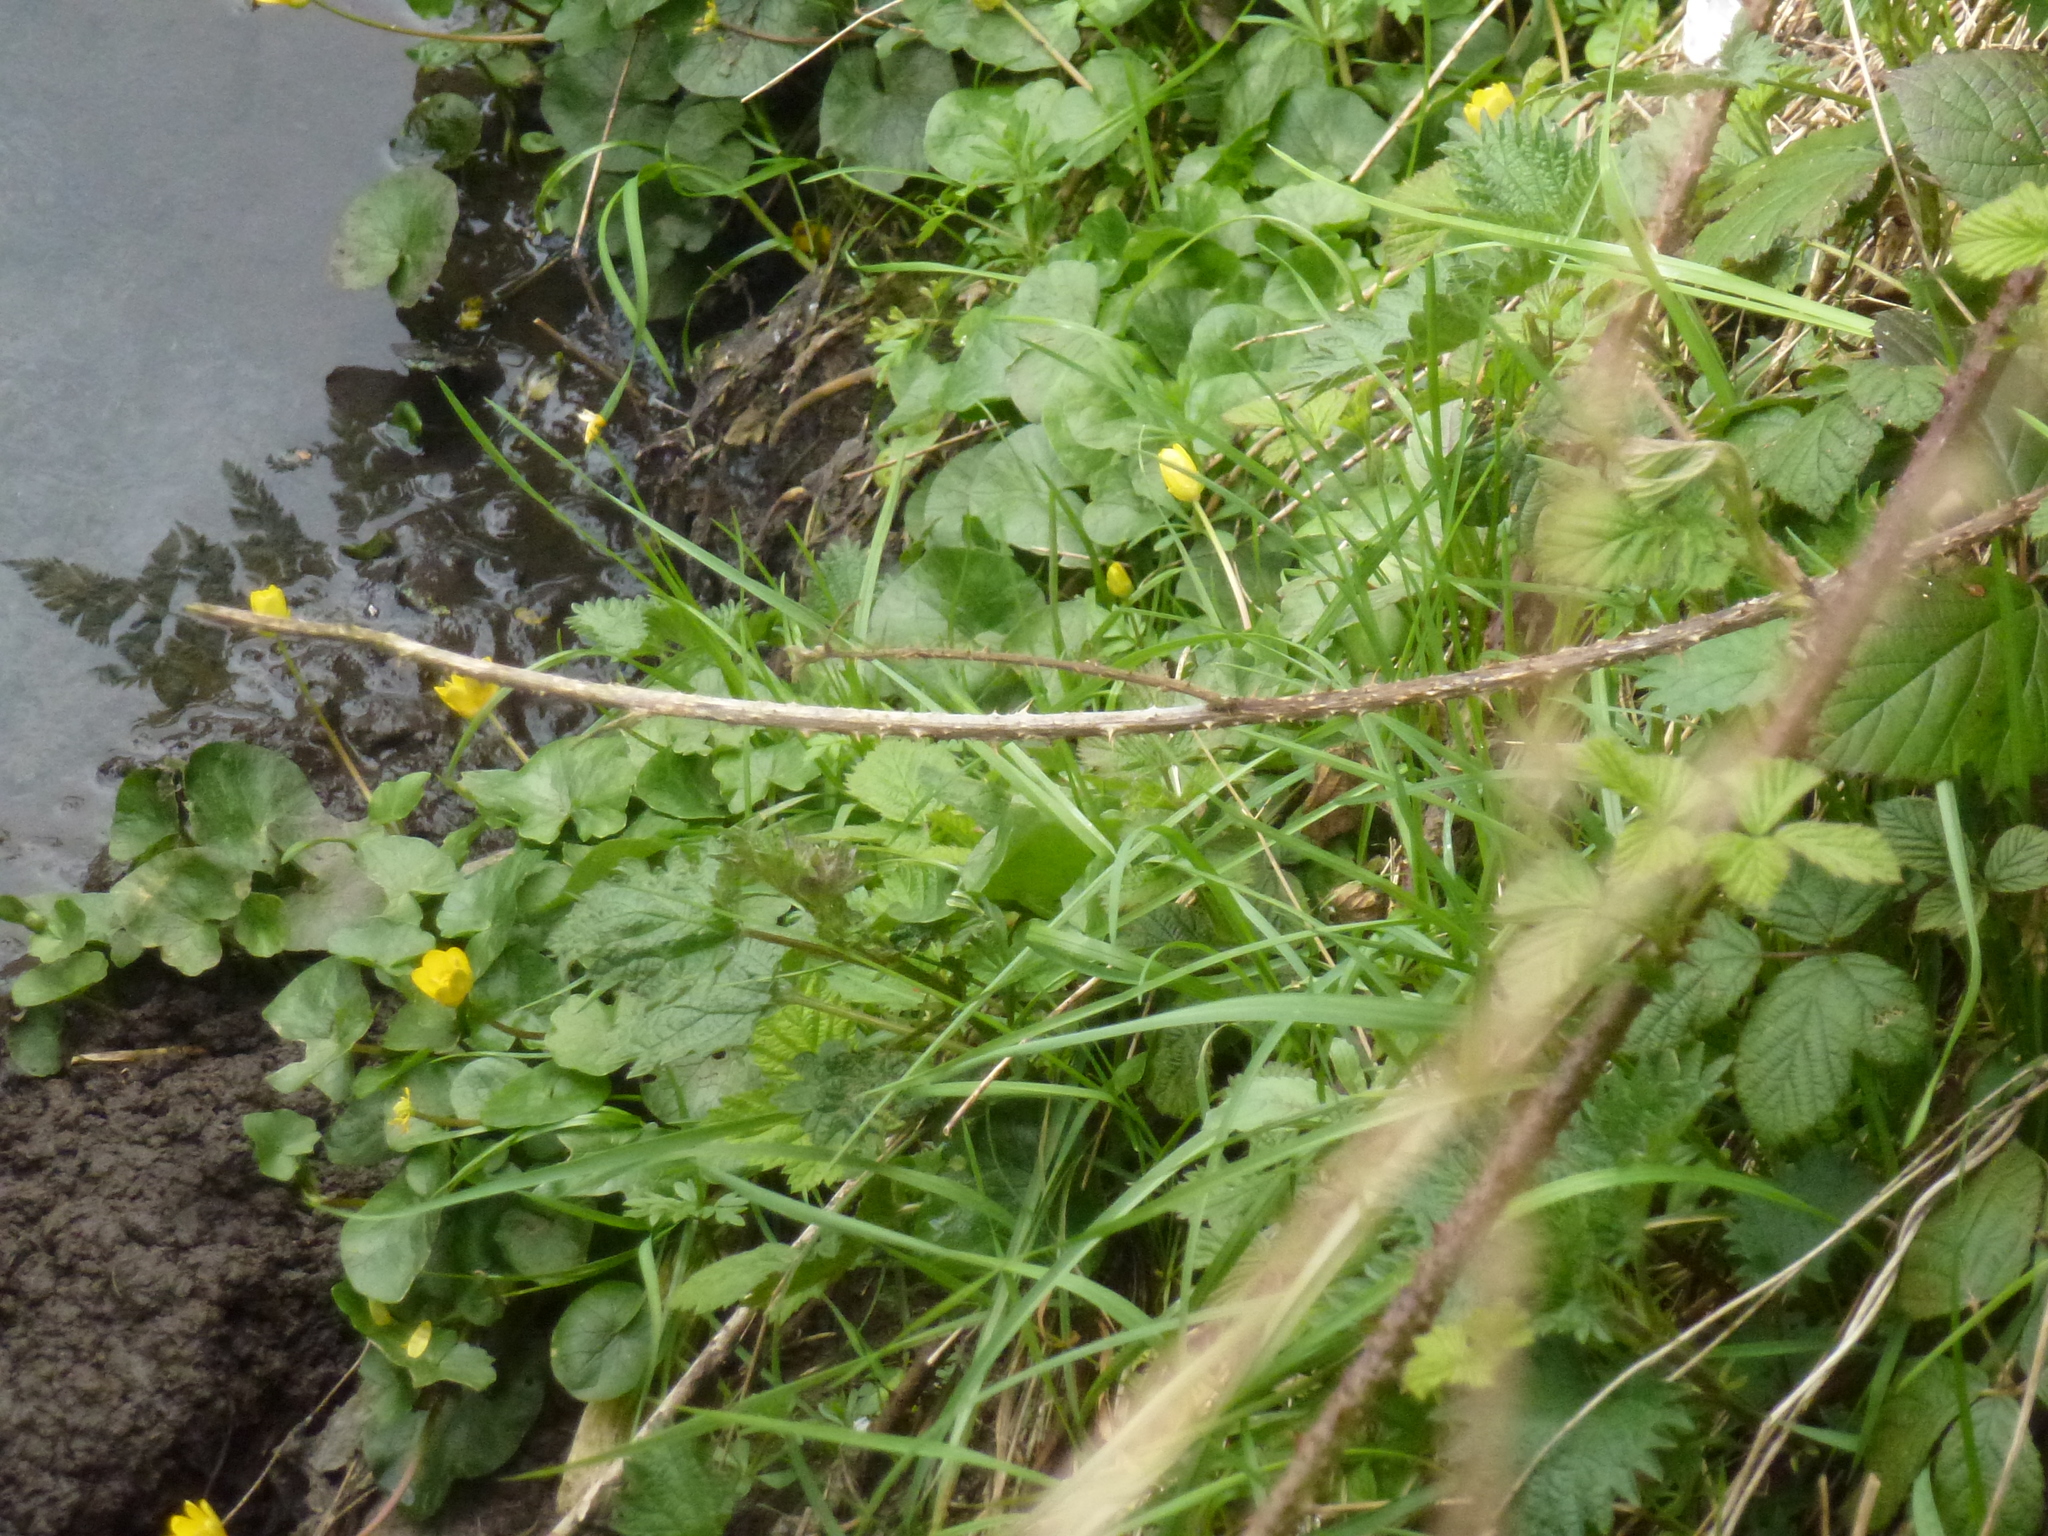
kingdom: Plantae
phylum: Tracheophyta
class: Magnoliopsida
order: Ranunculales
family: Ranunculaceae
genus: Ficaria
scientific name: Ficaria verna
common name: Lesser celandine
